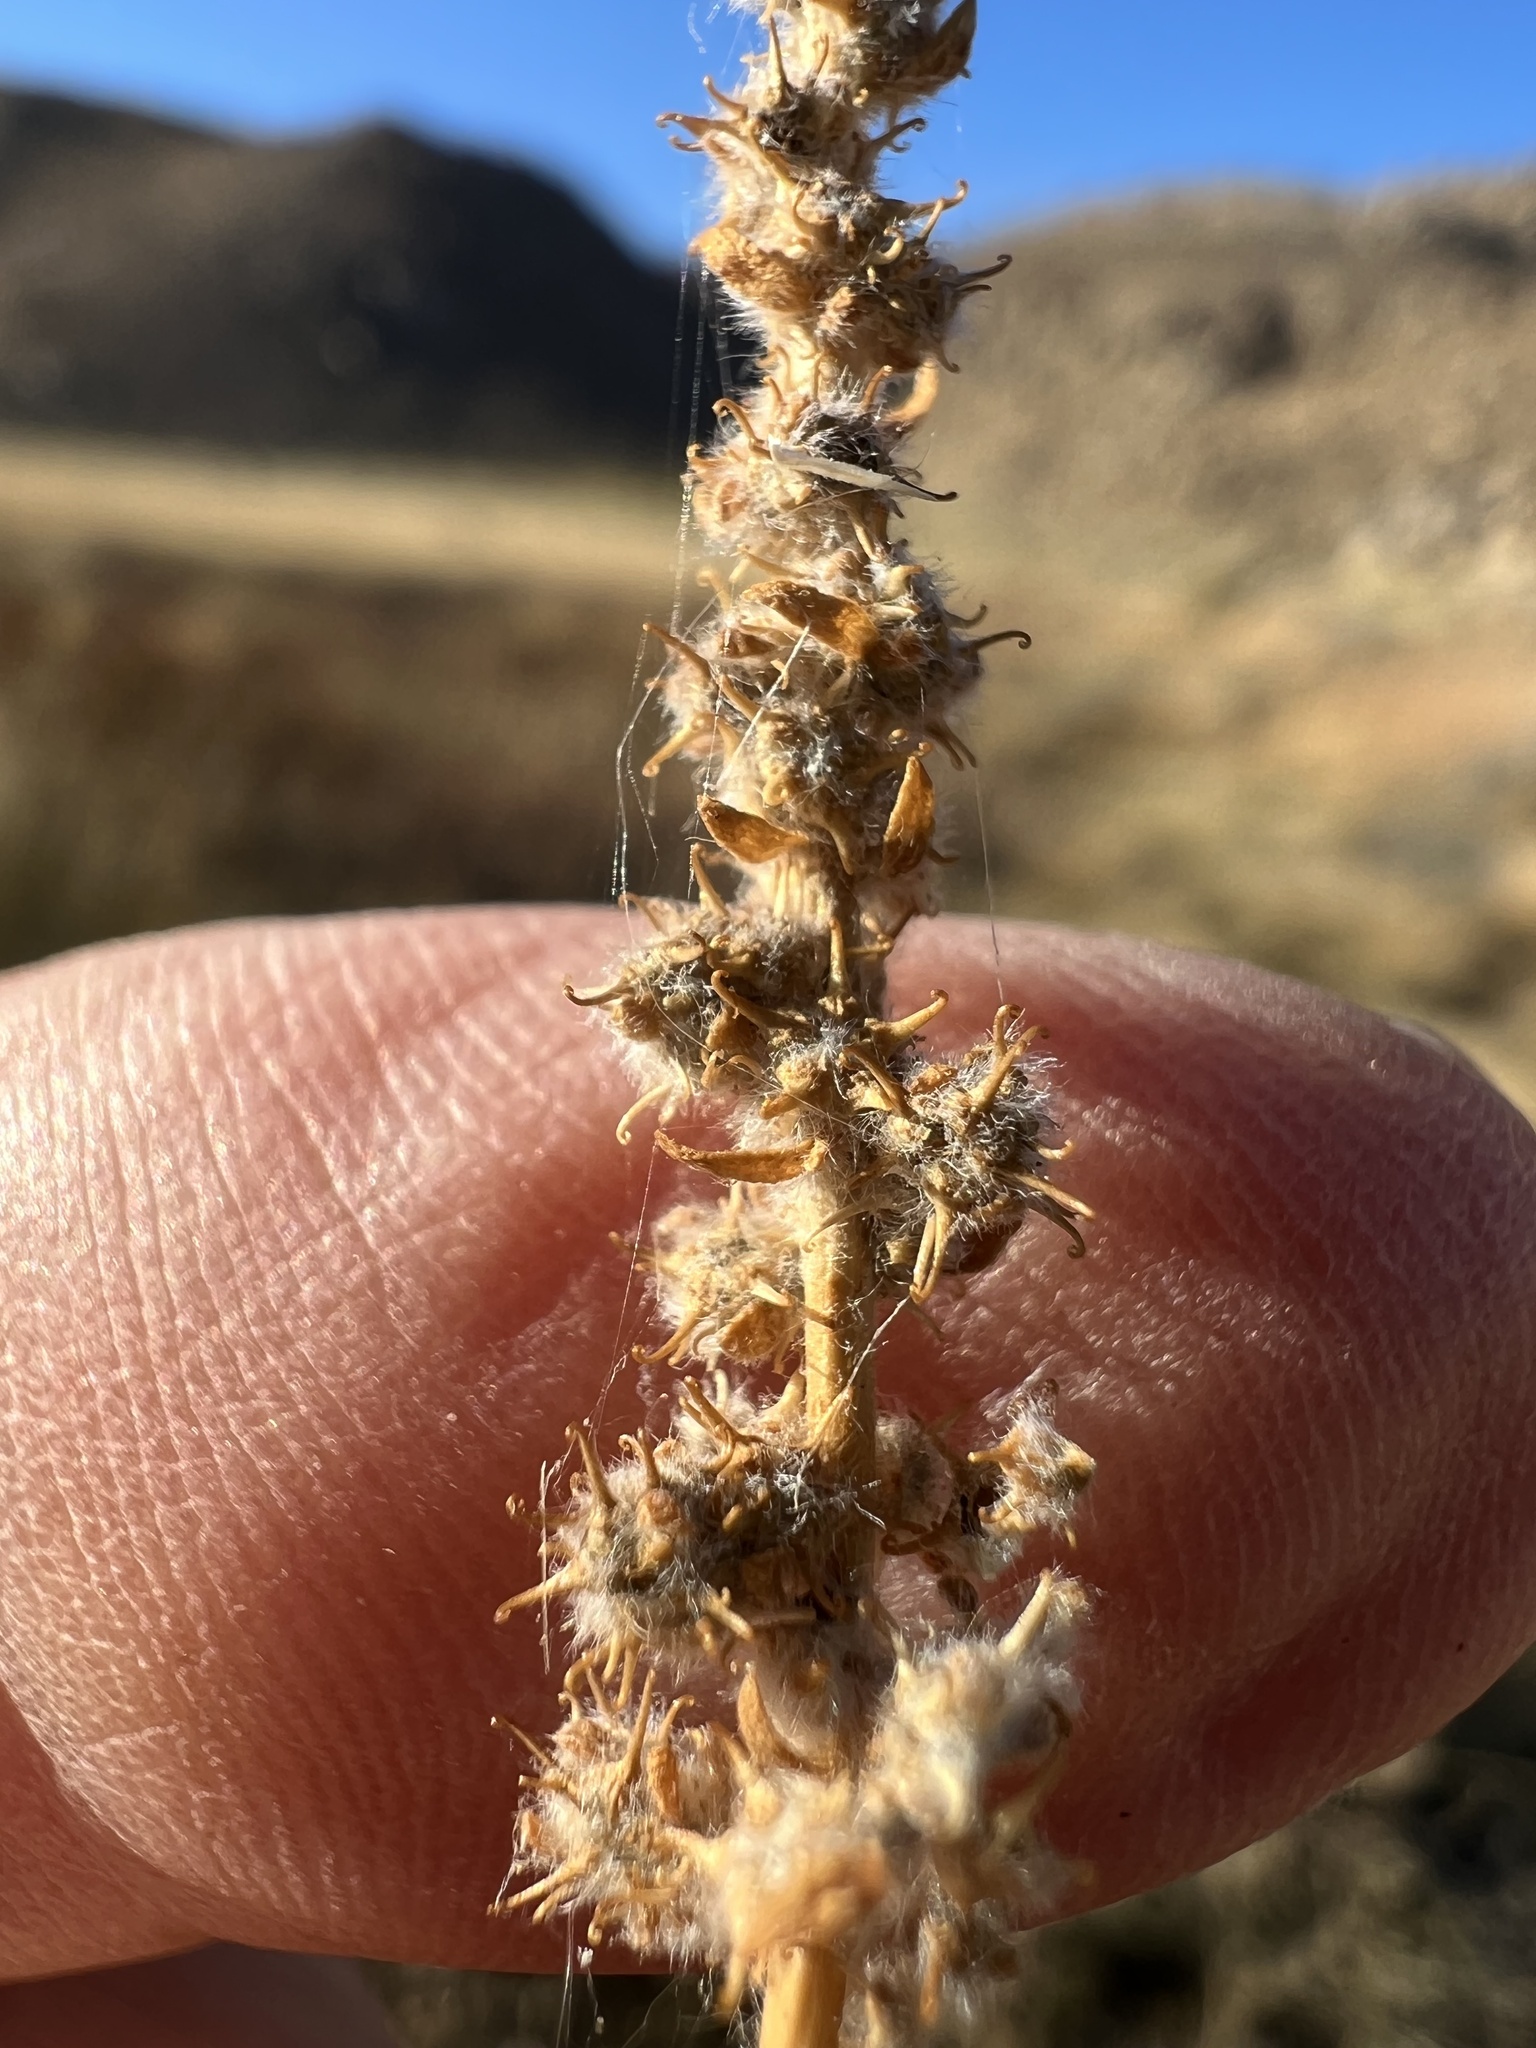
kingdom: Plantae
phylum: Tracheophyta
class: Magnoliopsida
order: Caryophyllales
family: Amaranthaceae
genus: Bassia
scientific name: Bassia hyssopifolia
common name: Fivehorn smotherweed
